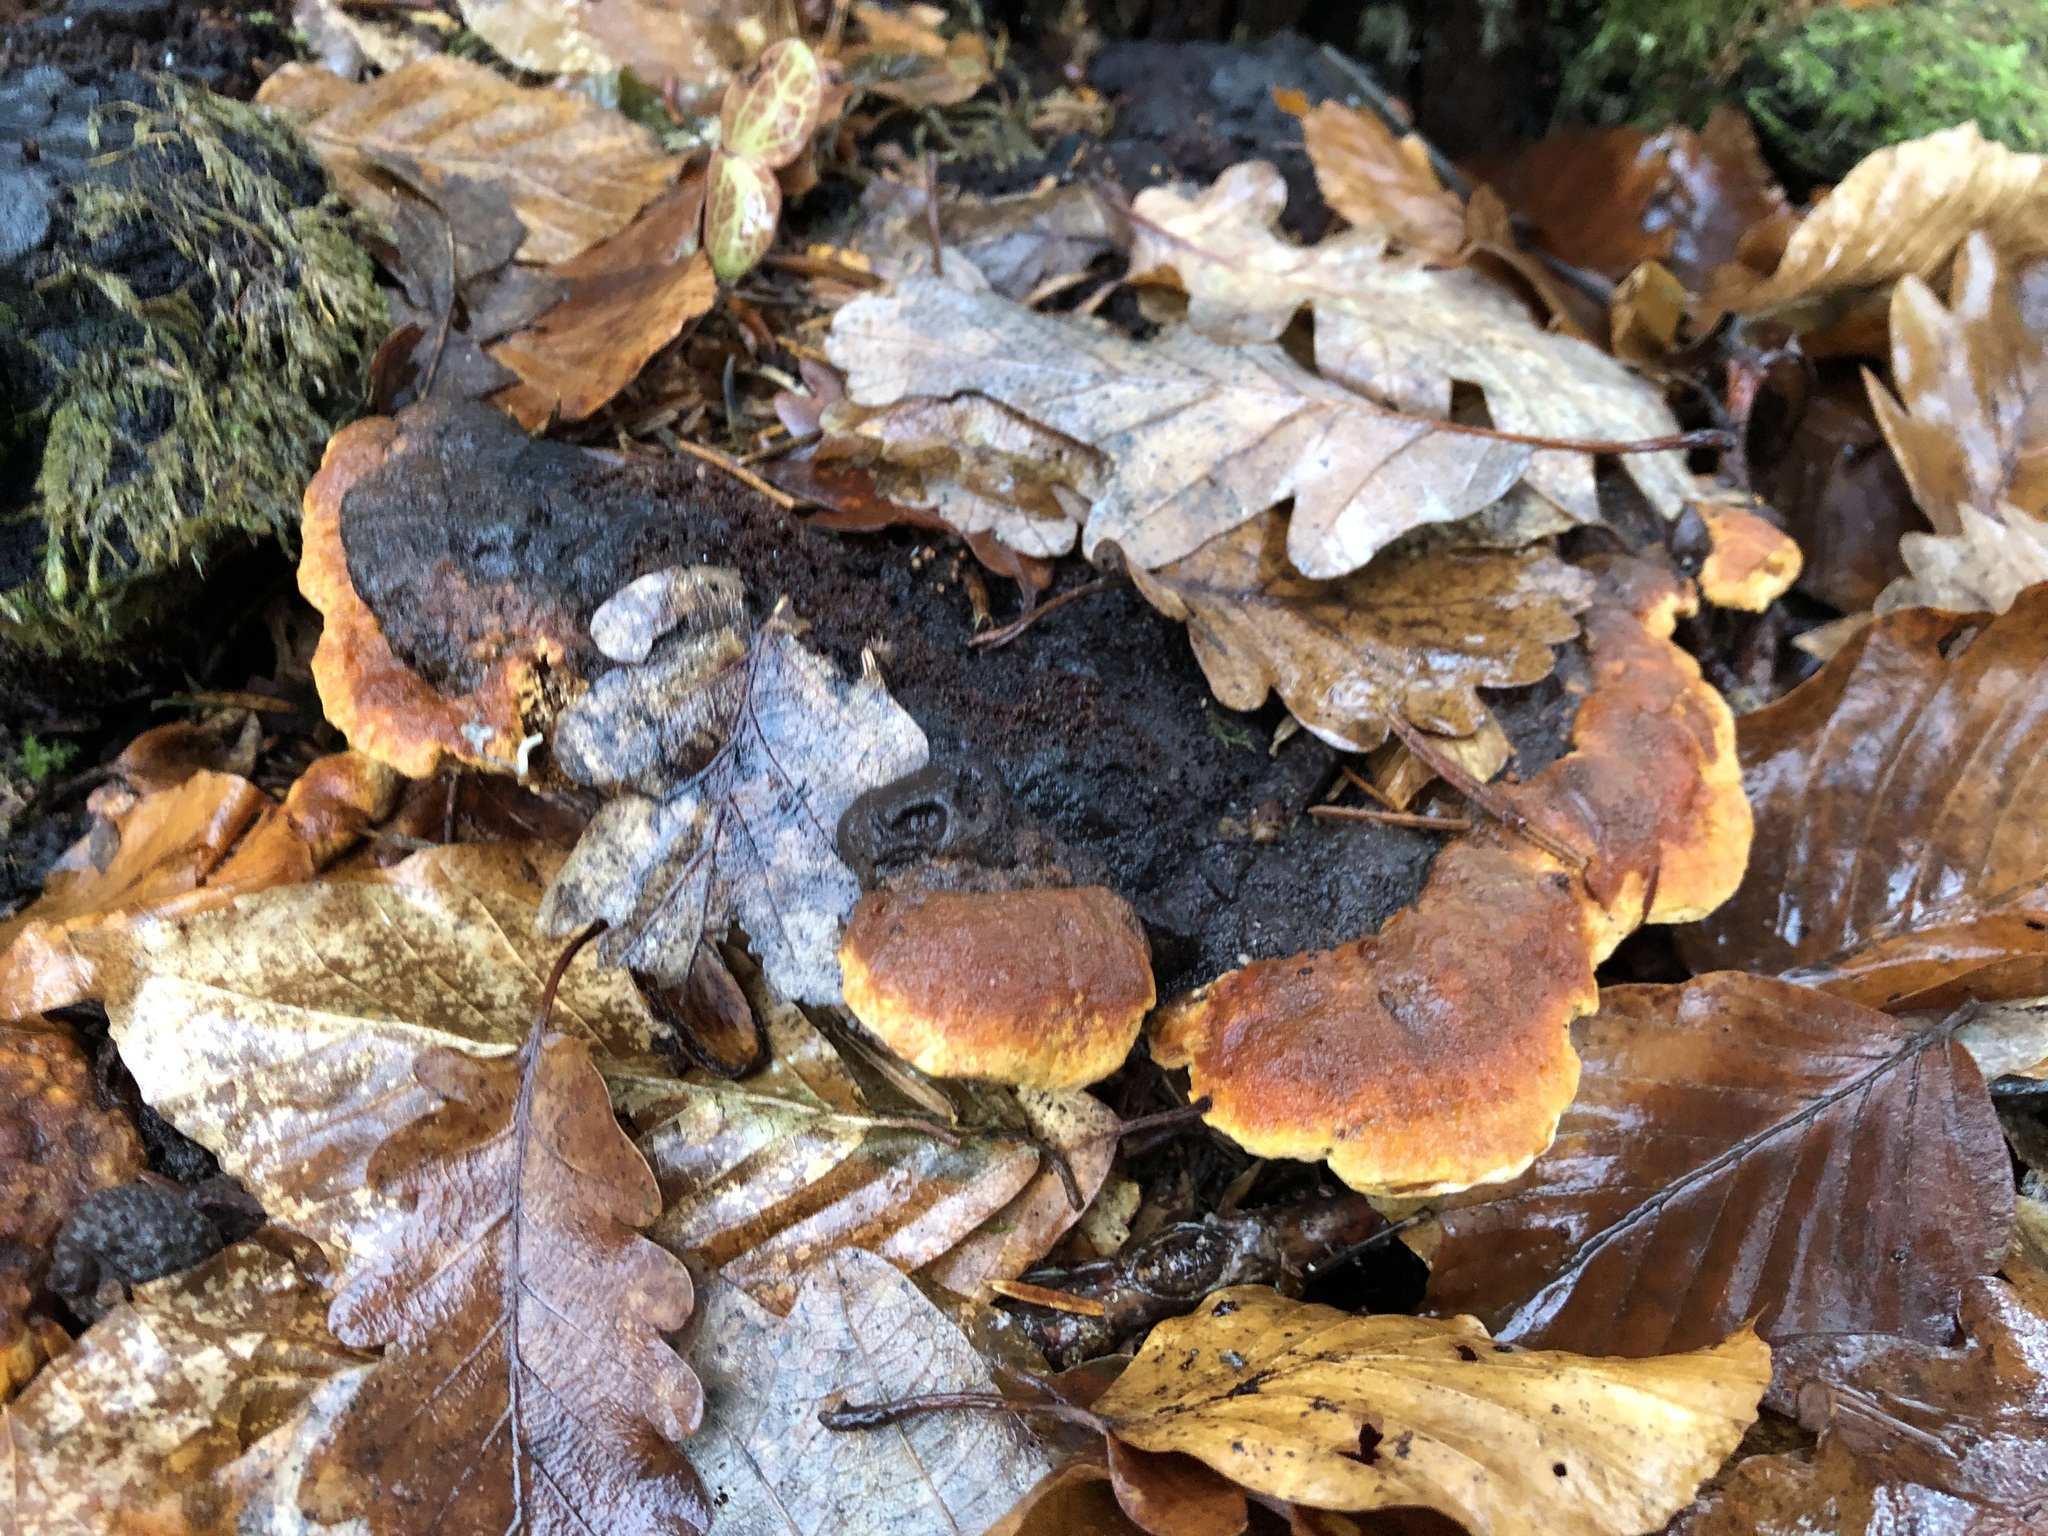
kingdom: Fungi
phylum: Basidiomycota
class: Agaricomycetes
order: Gloeophyllales
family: Gloeophyllaceae
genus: Gloeophyllum
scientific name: Gloeophyllum odoratum
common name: Anise mazegill
